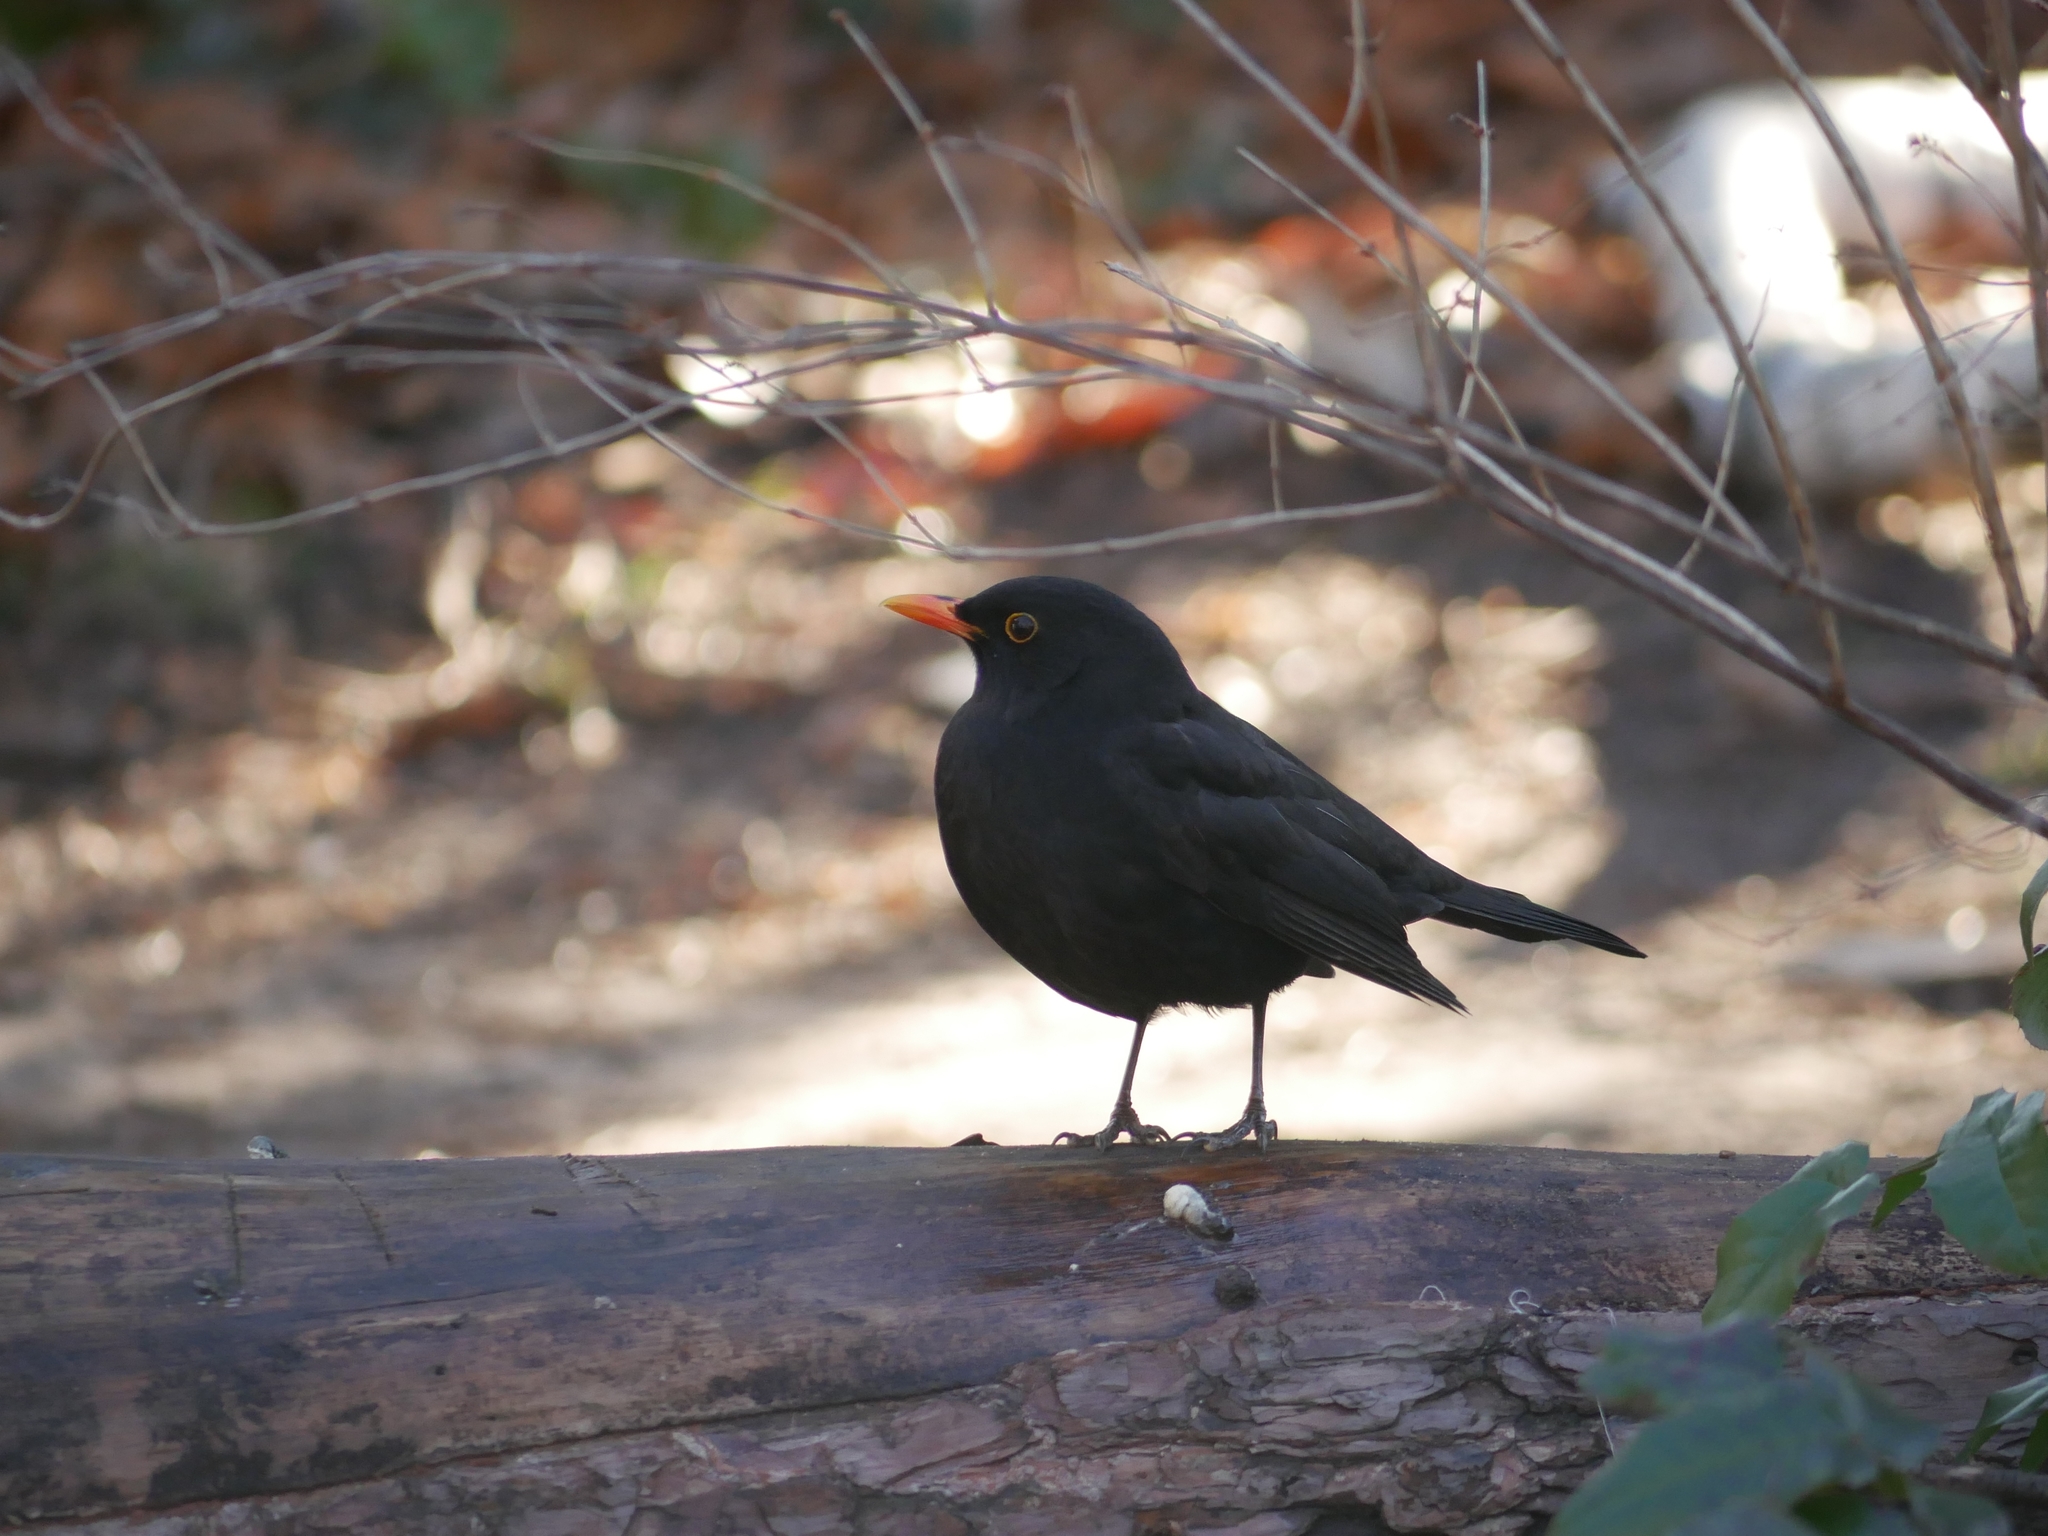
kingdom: Animalia
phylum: Chordata
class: Aves
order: Passeriformes
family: Turdidae
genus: Turdus
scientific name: Turdus merula
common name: Common blackbird
